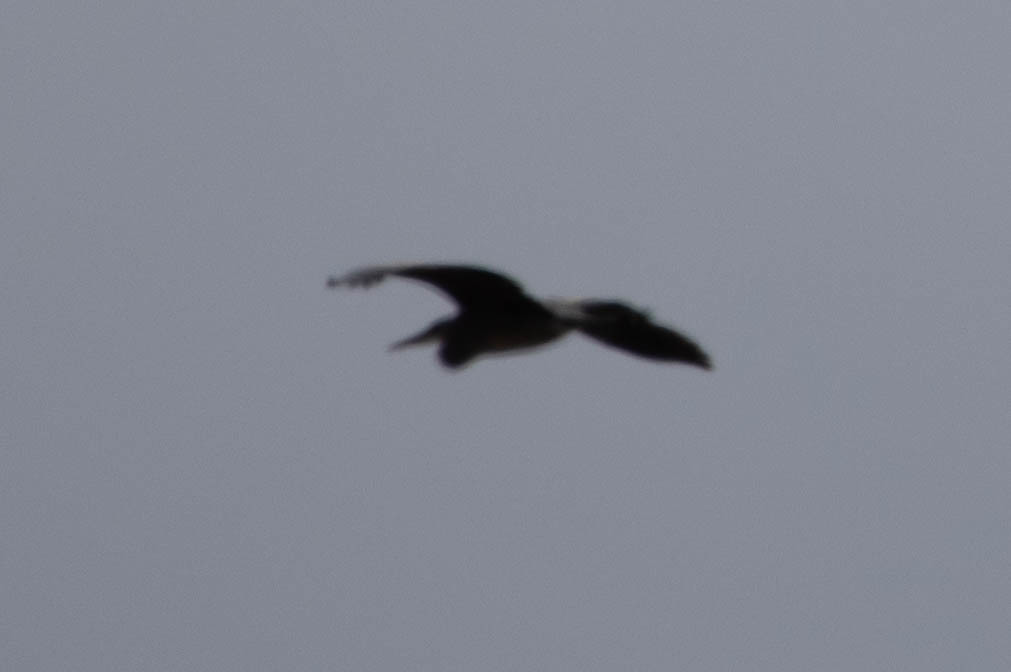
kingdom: Animalia
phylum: Chordata
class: Aves
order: Pelecaniformes
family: Ardeidae
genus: Ardea
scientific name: Ardea herodias
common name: Great blue heron
